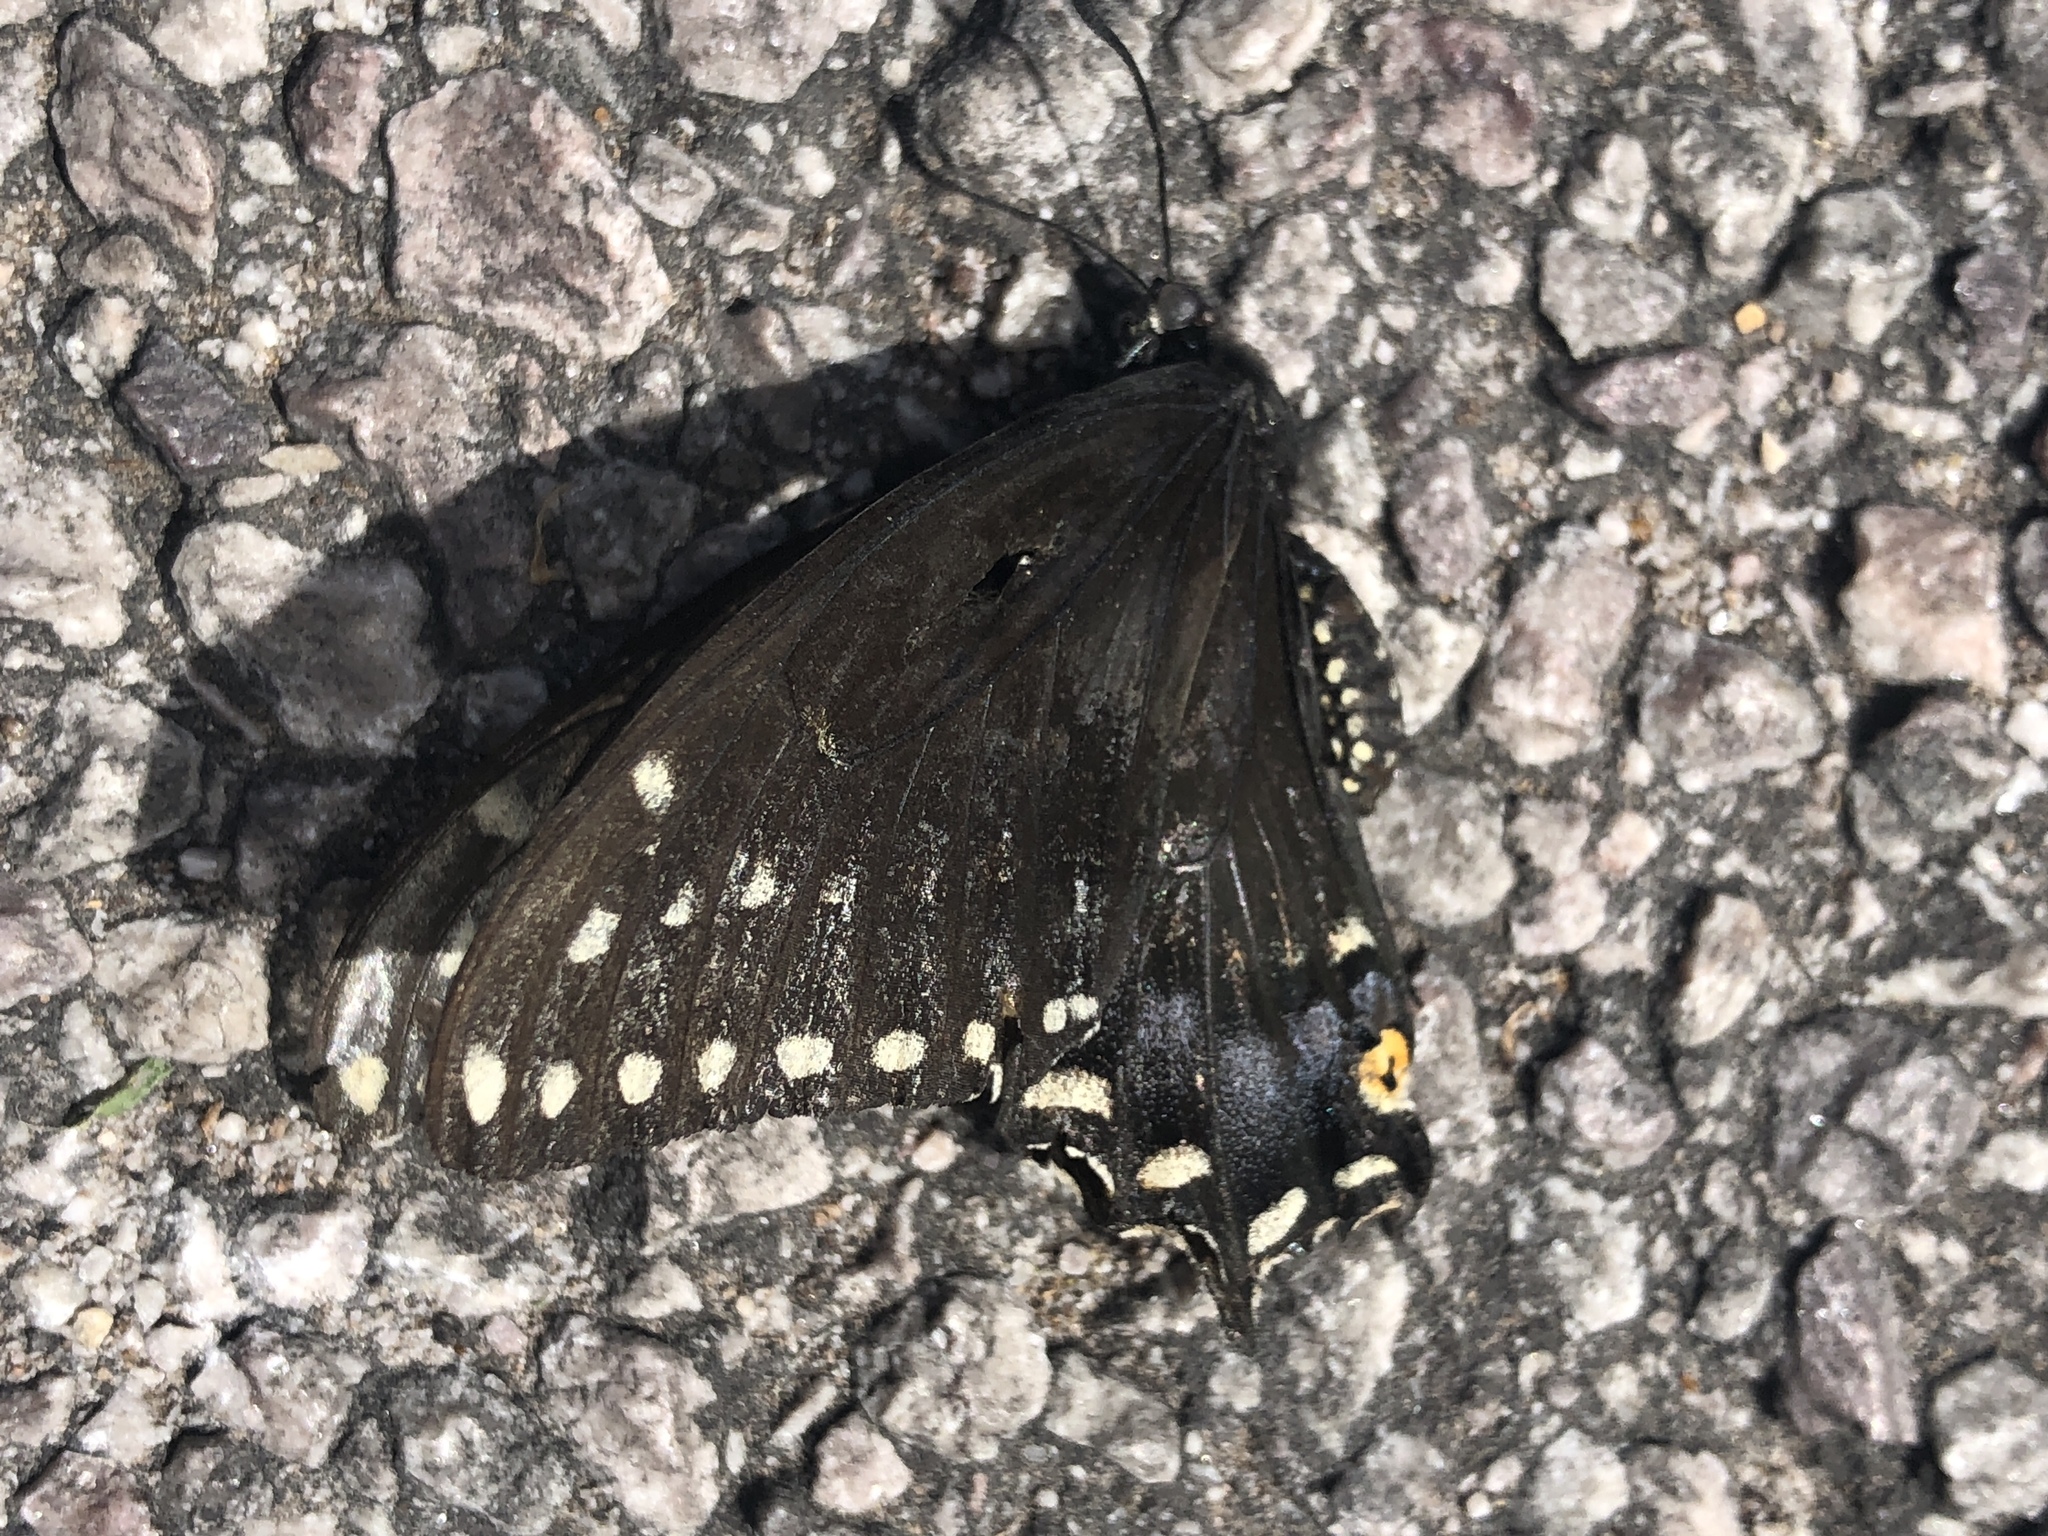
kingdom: Animalia
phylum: Arthropoda
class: Insecta
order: Lepidoptera
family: Papilionidae
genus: Papilio
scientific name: Papilio polyxenes
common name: Black swallowtail
